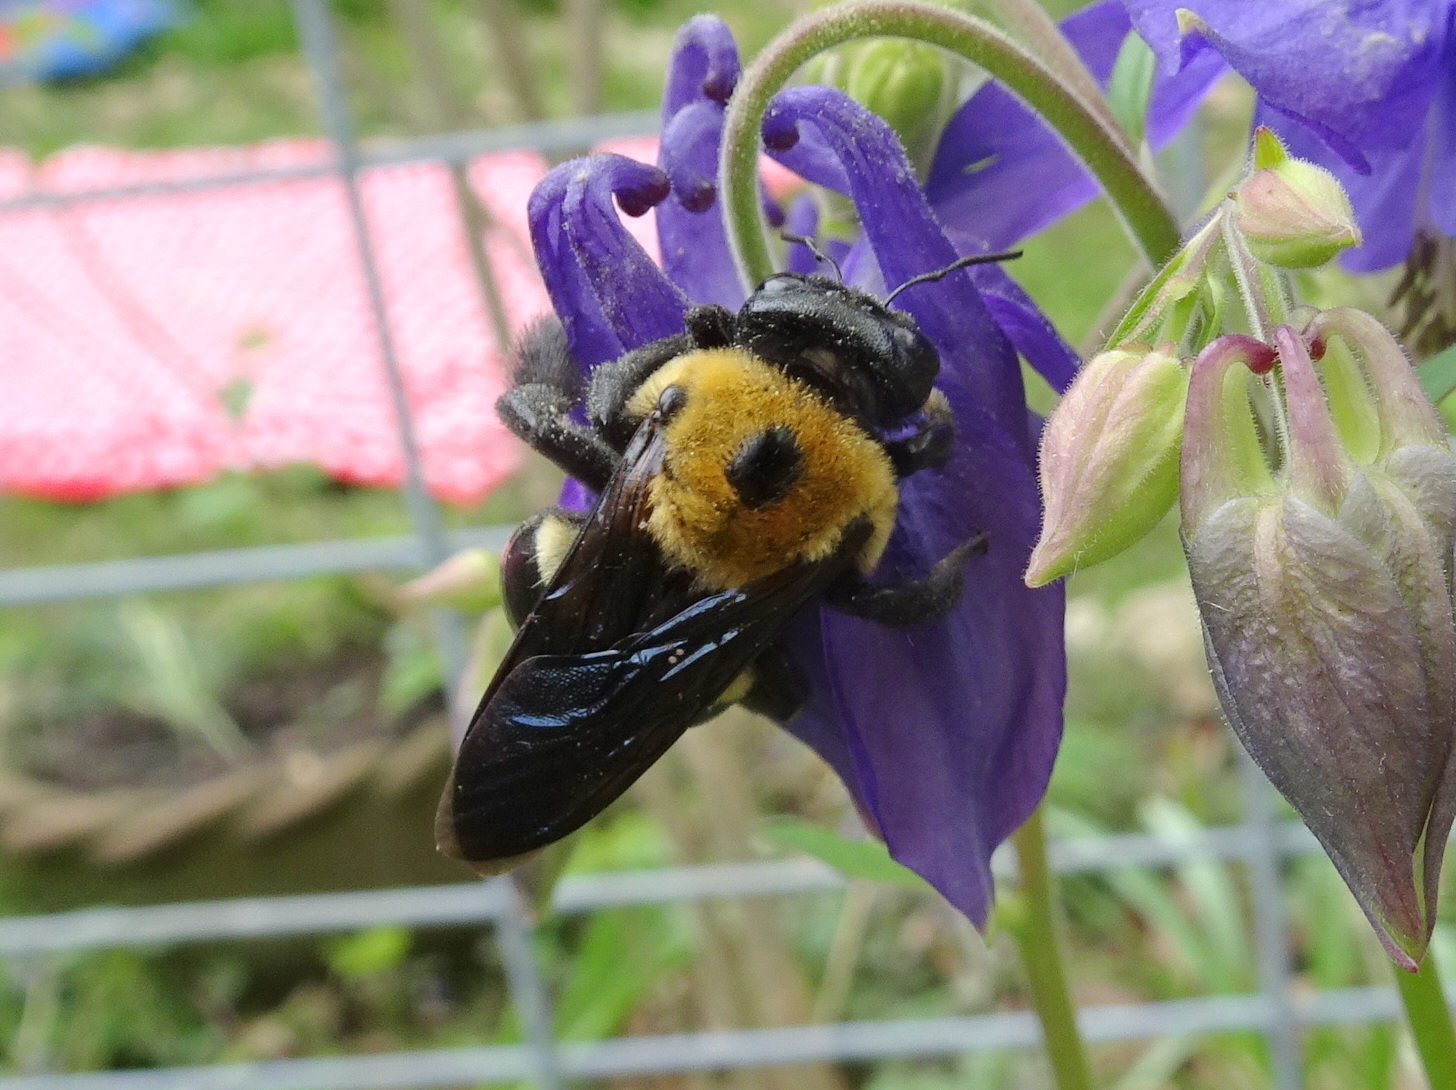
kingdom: Animalia
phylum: Arthropoda
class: Insecta
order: Hymenoptera
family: Apidae
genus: Xylocopa
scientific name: Xylocopa virginica
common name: Carpenter bee
